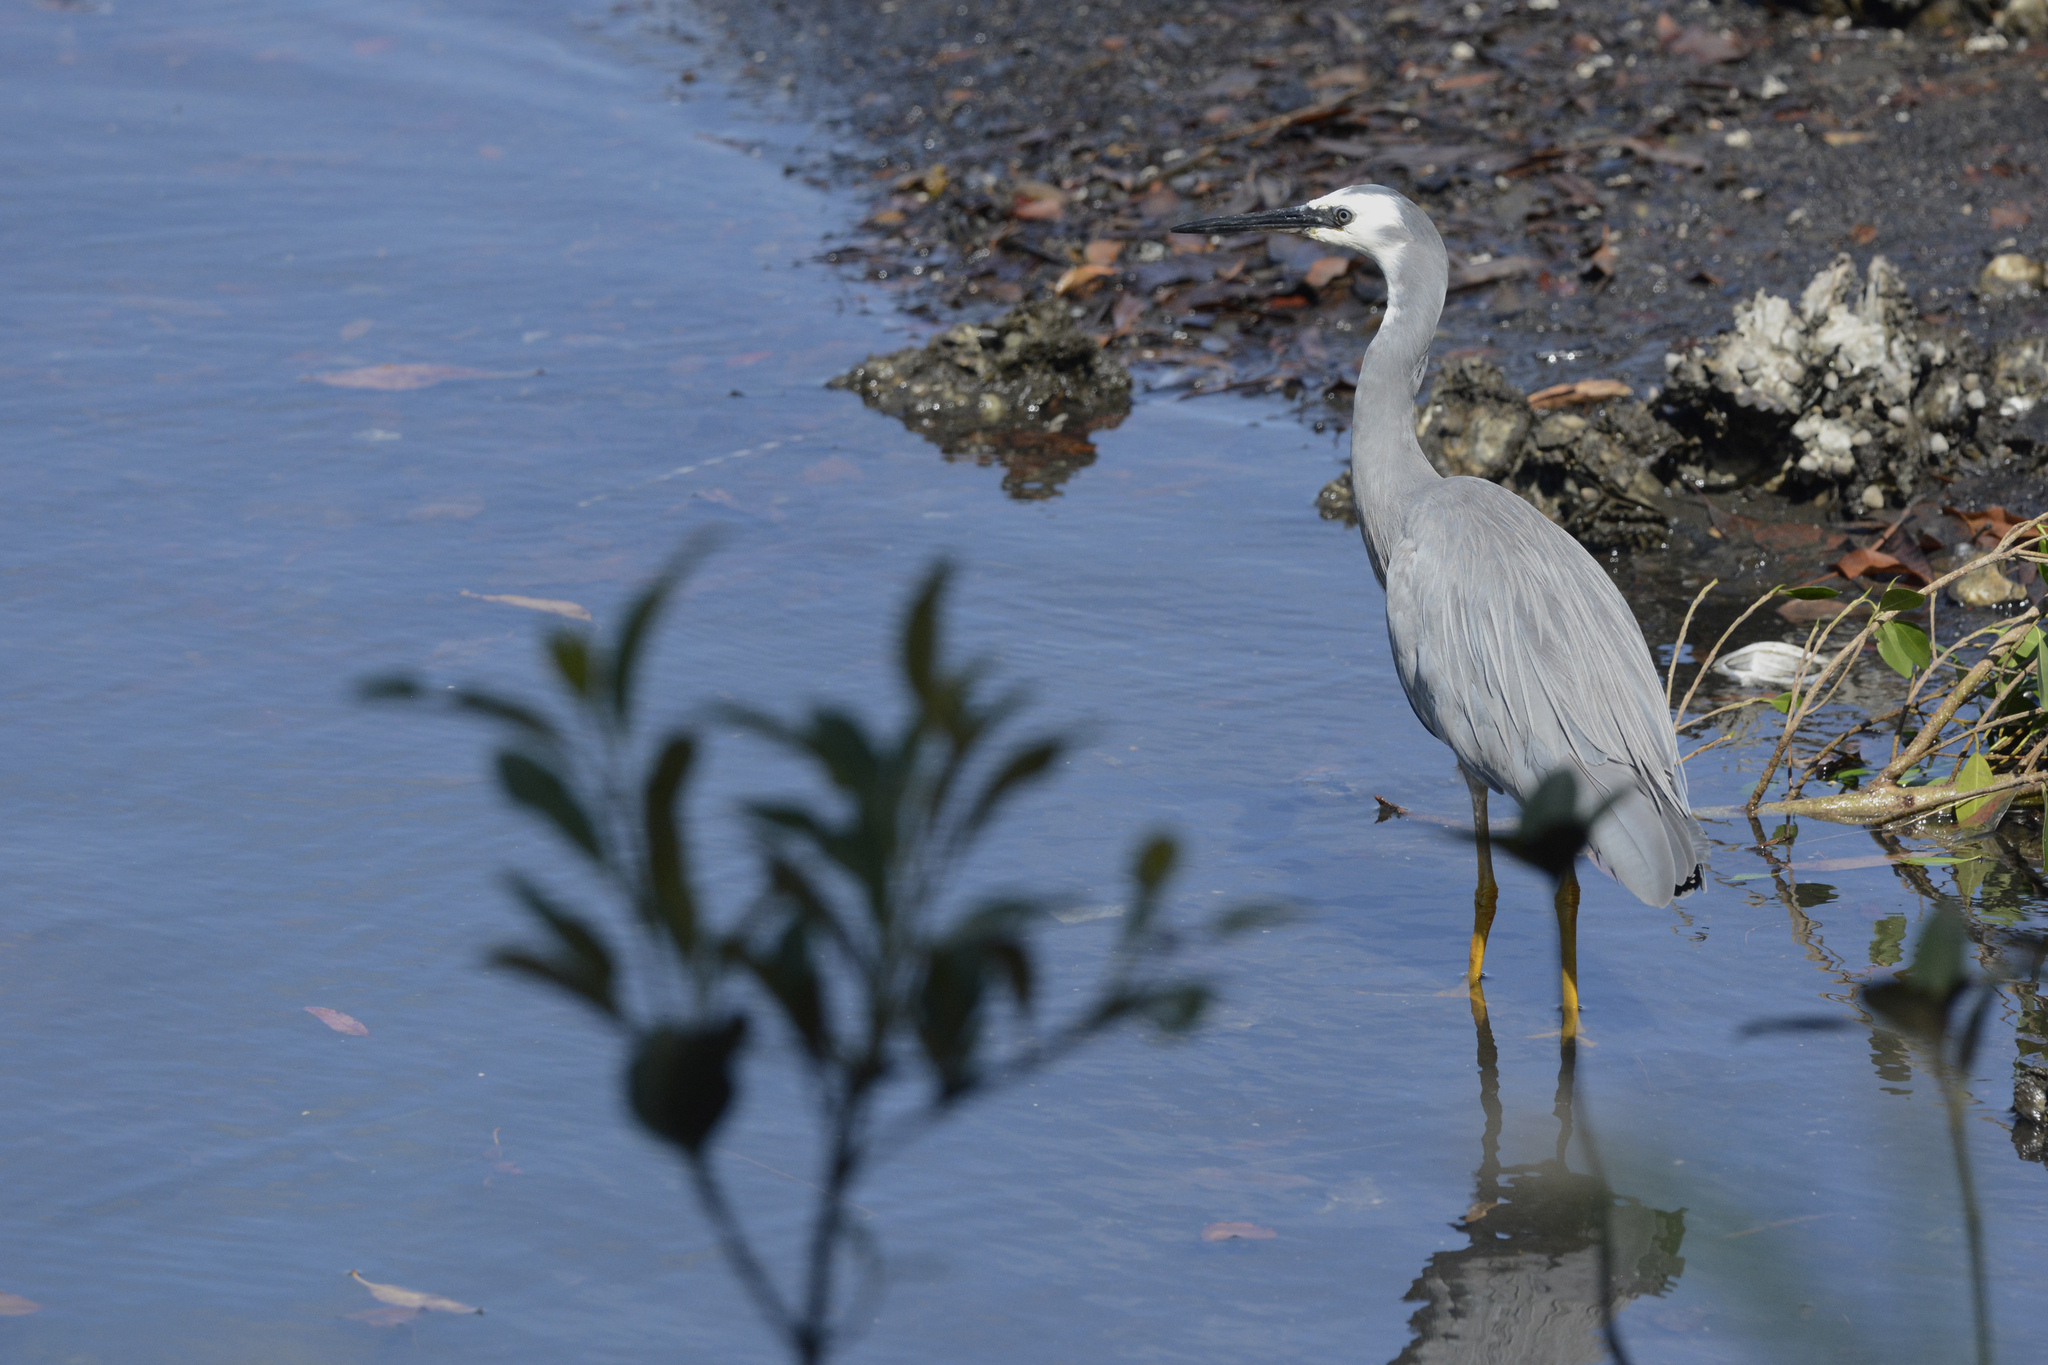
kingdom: Animalia
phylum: Chordata
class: Aves
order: Pelecaniformes
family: Ardeidae
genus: Egretta
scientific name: Egretta novaehollandiae
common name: White-faced heron
